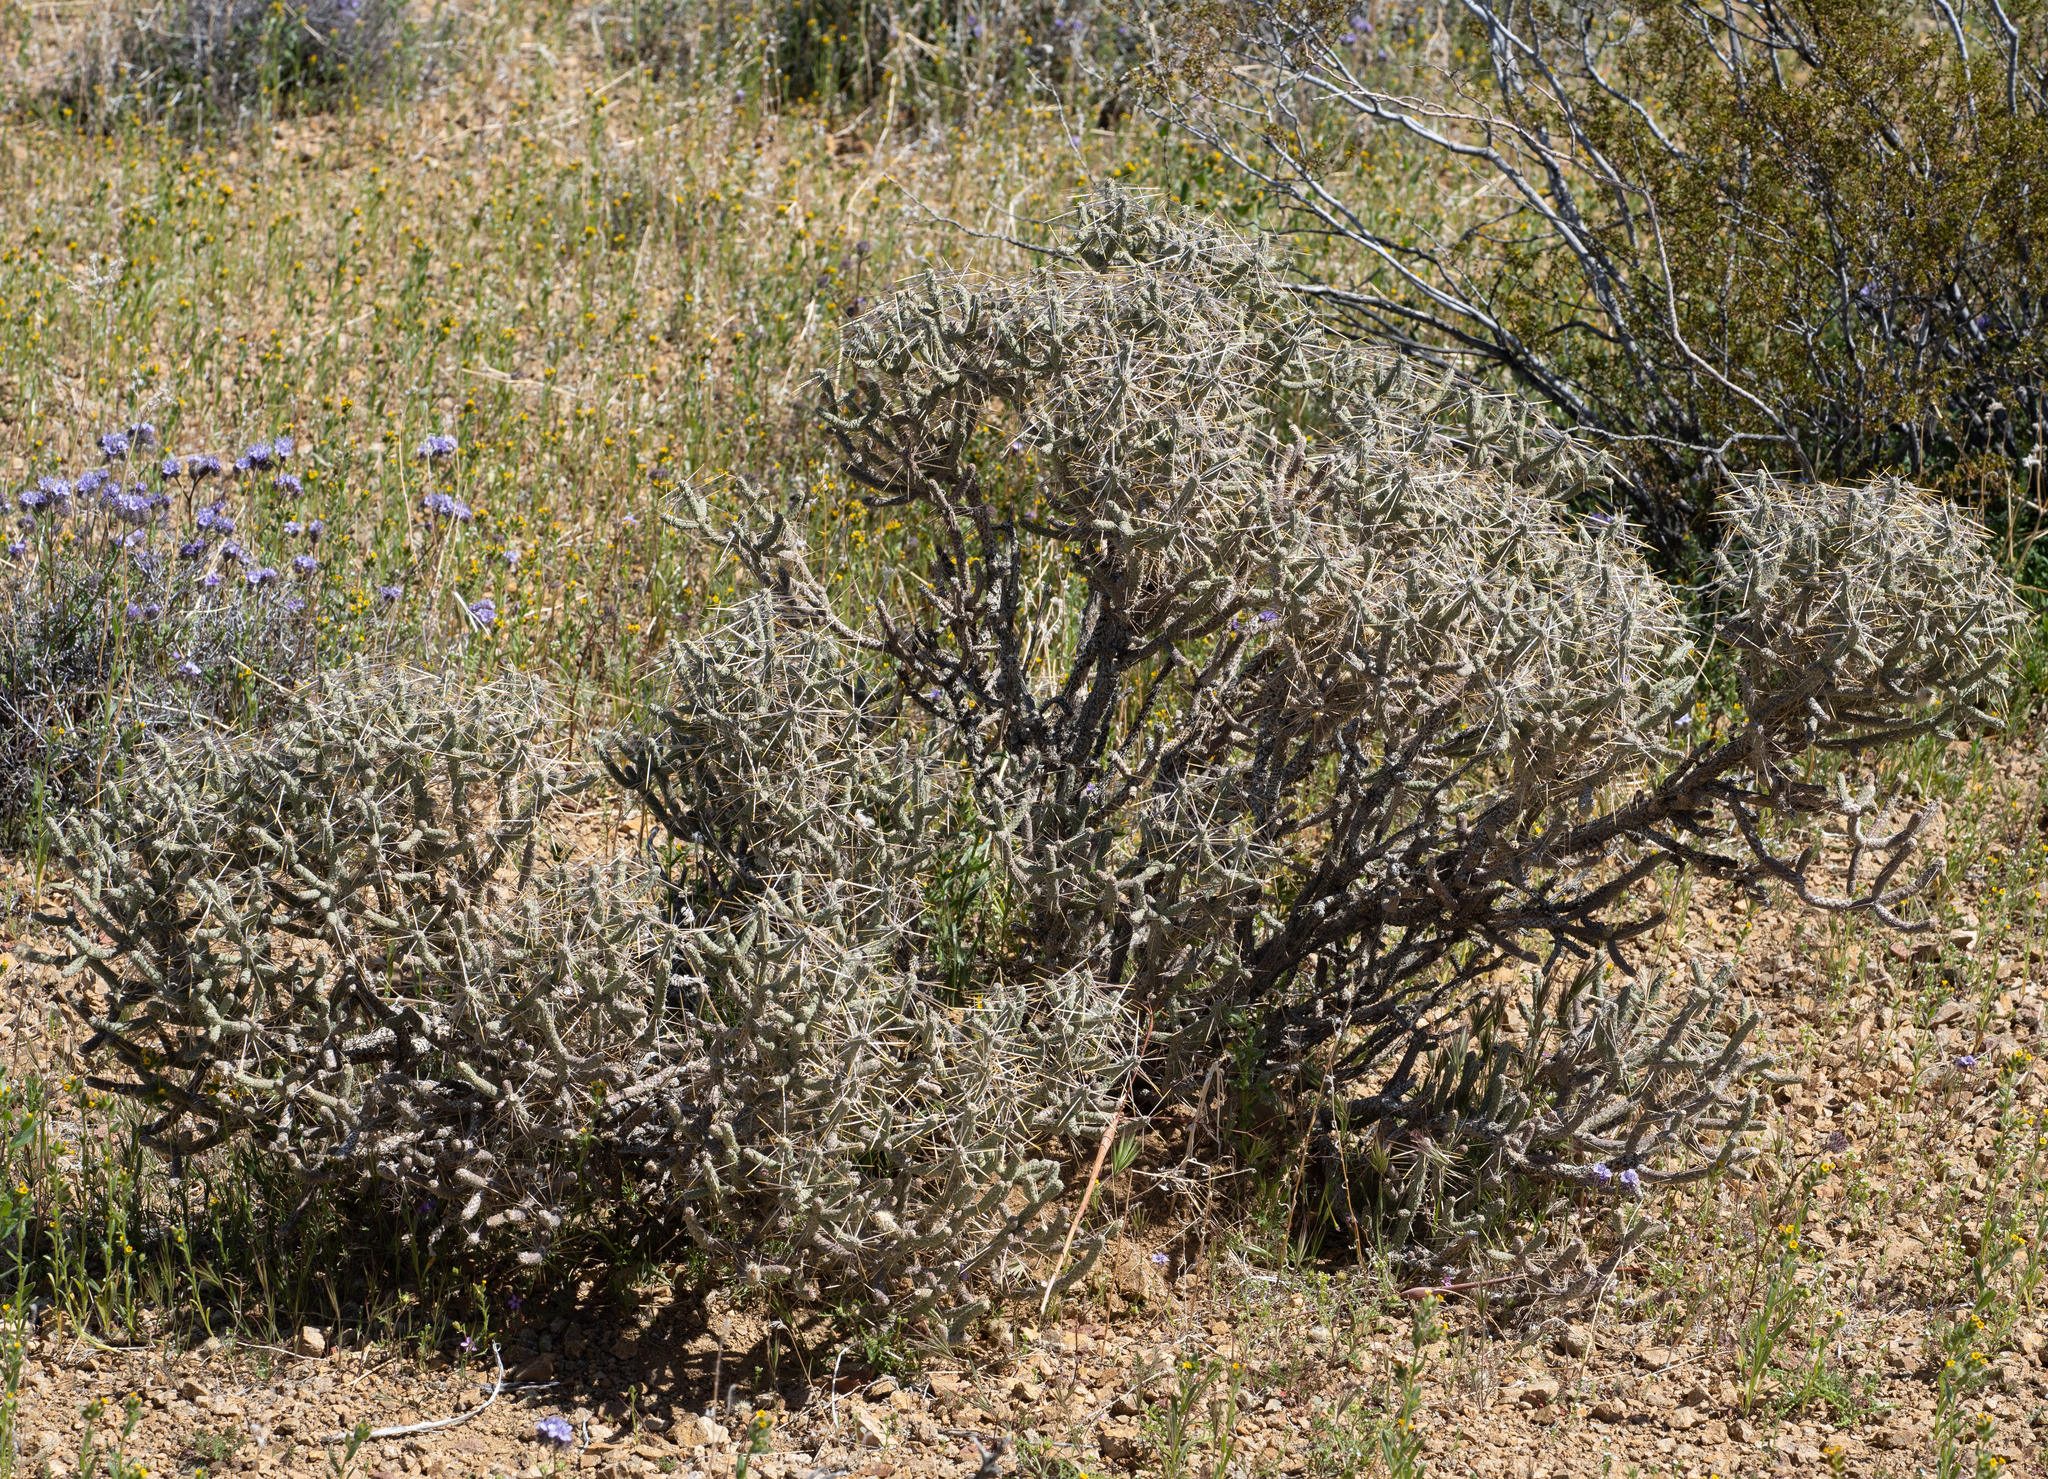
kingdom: Plantae
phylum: Tracheophyta
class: Magnoliopsida
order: Caryophyllales
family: Cactaceae
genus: Cylindropuntia
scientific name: Cylindropuntia ramosissima
